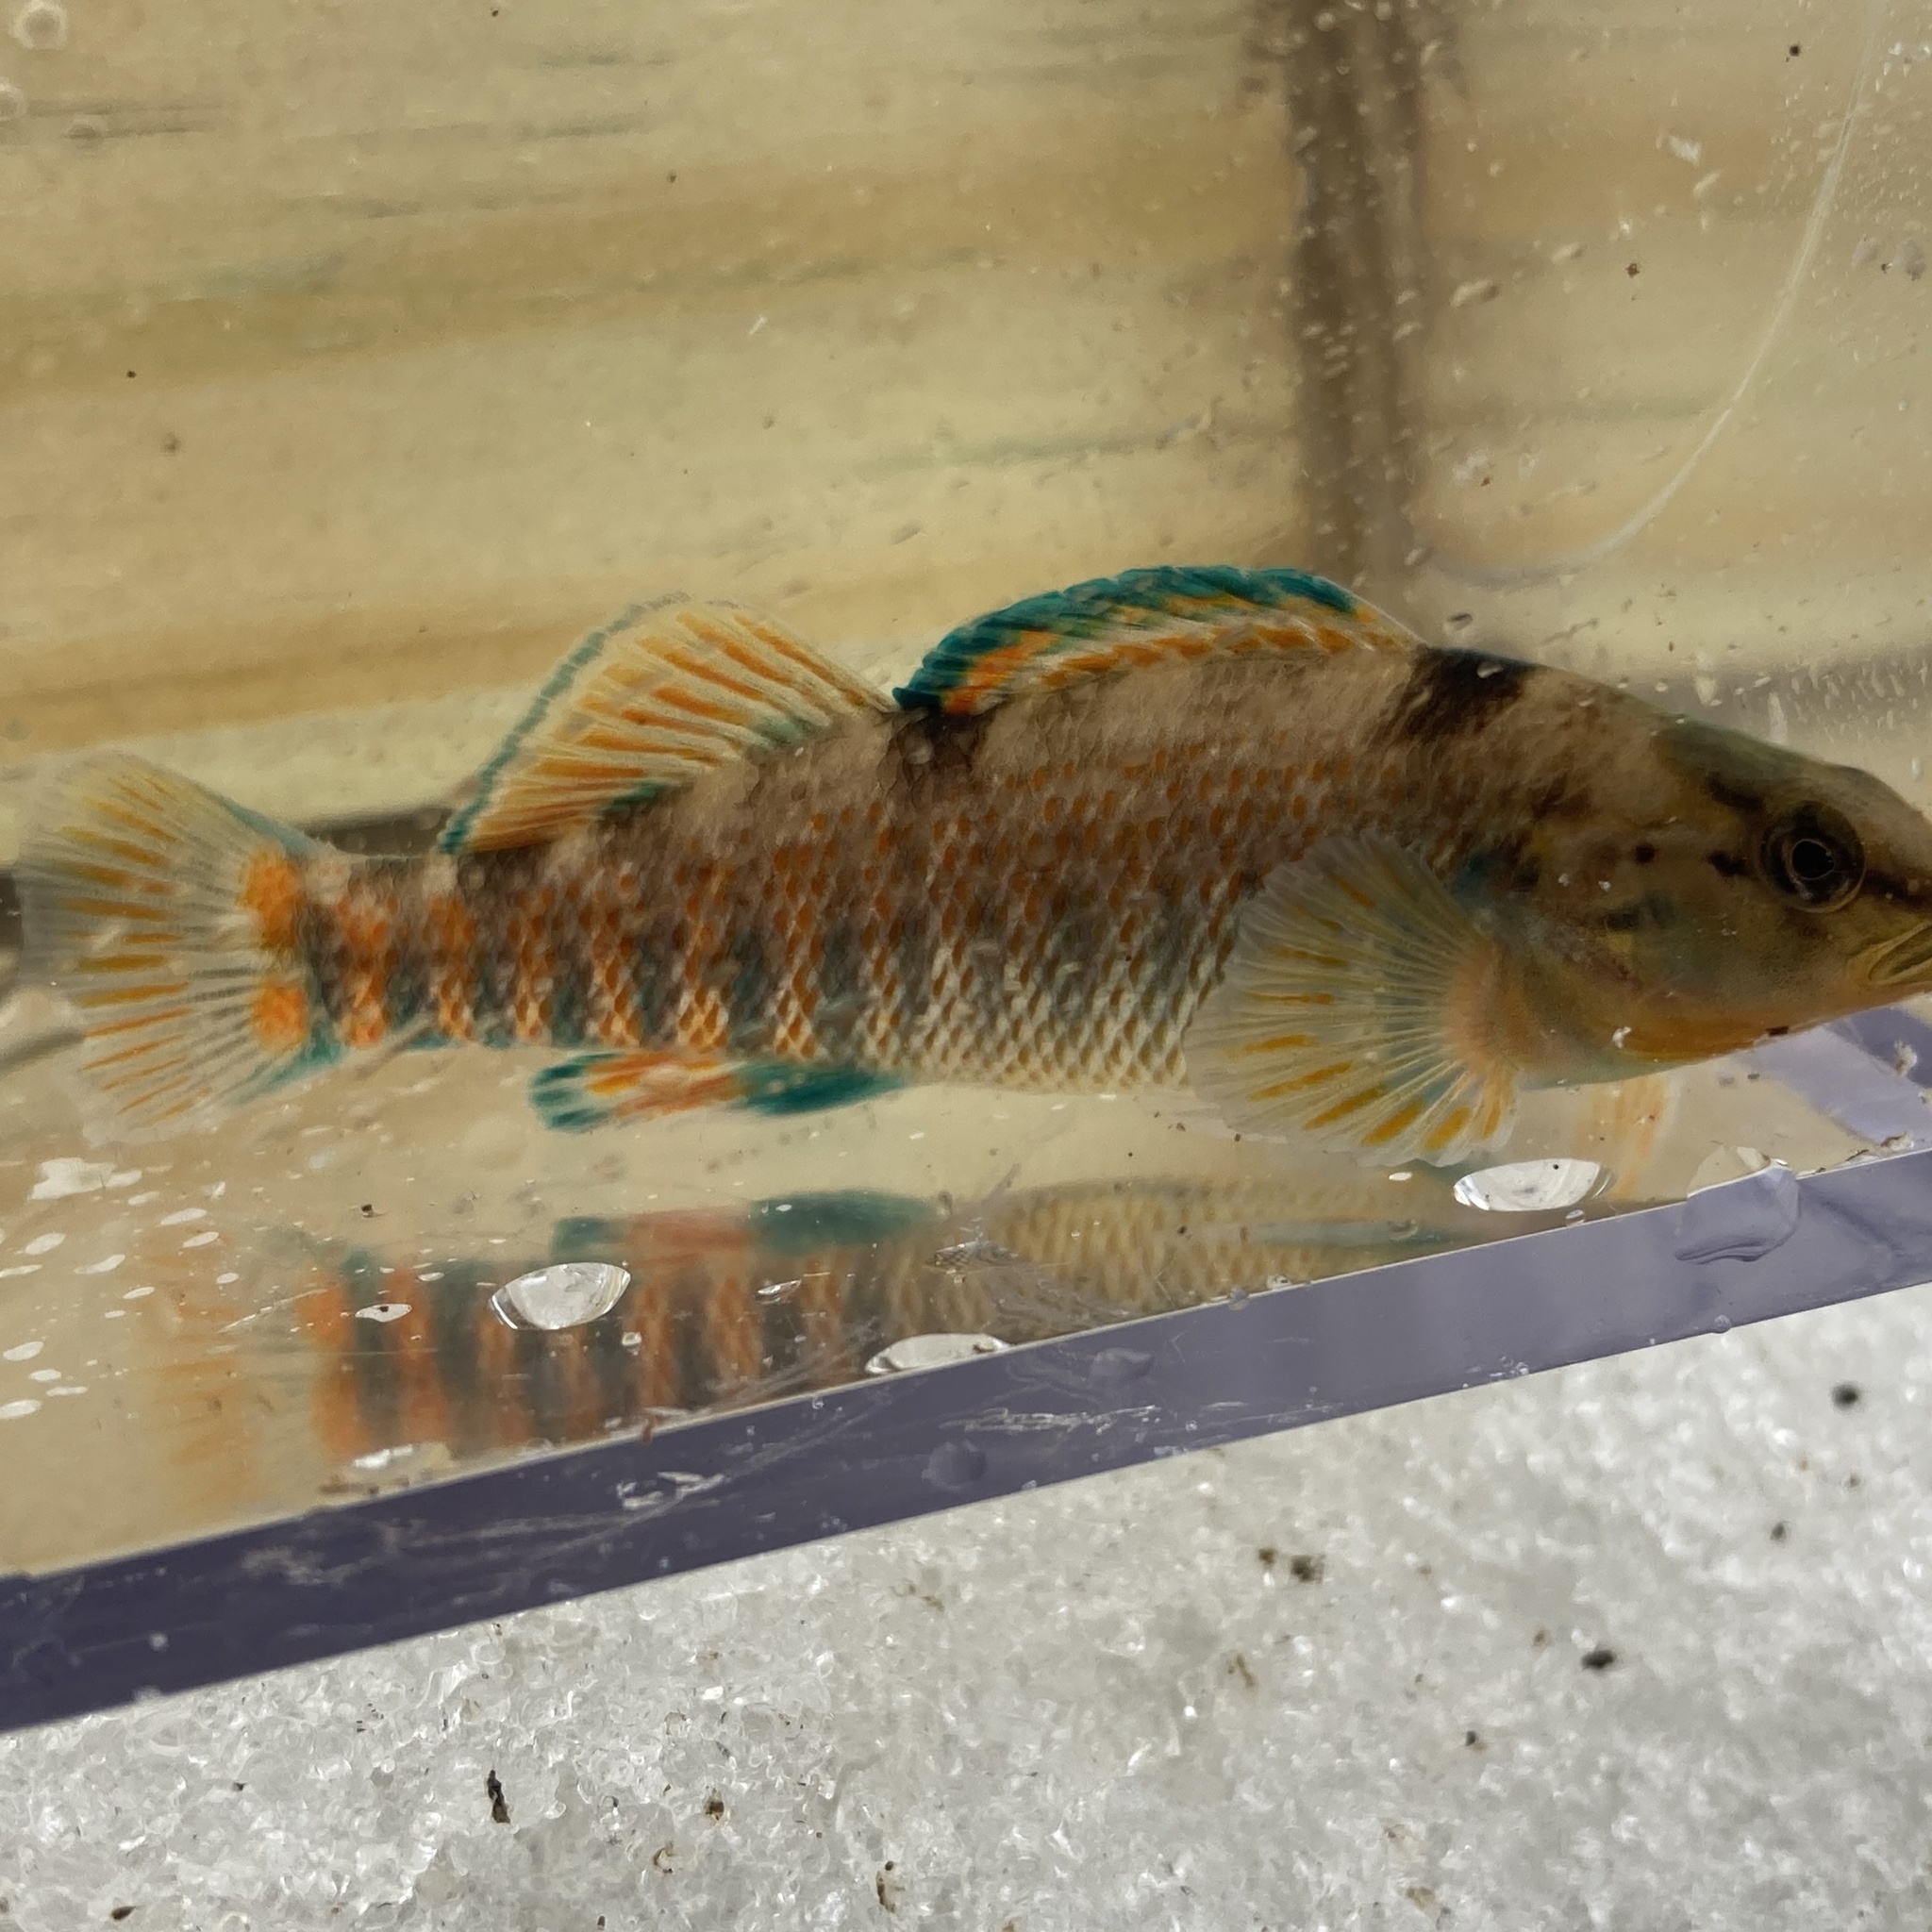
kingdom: Animalia
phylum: Chordata
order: Perciformes
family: Percidae
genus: Etheostoma
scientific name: Etheostoma caeruleum
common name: Rainbow darter
